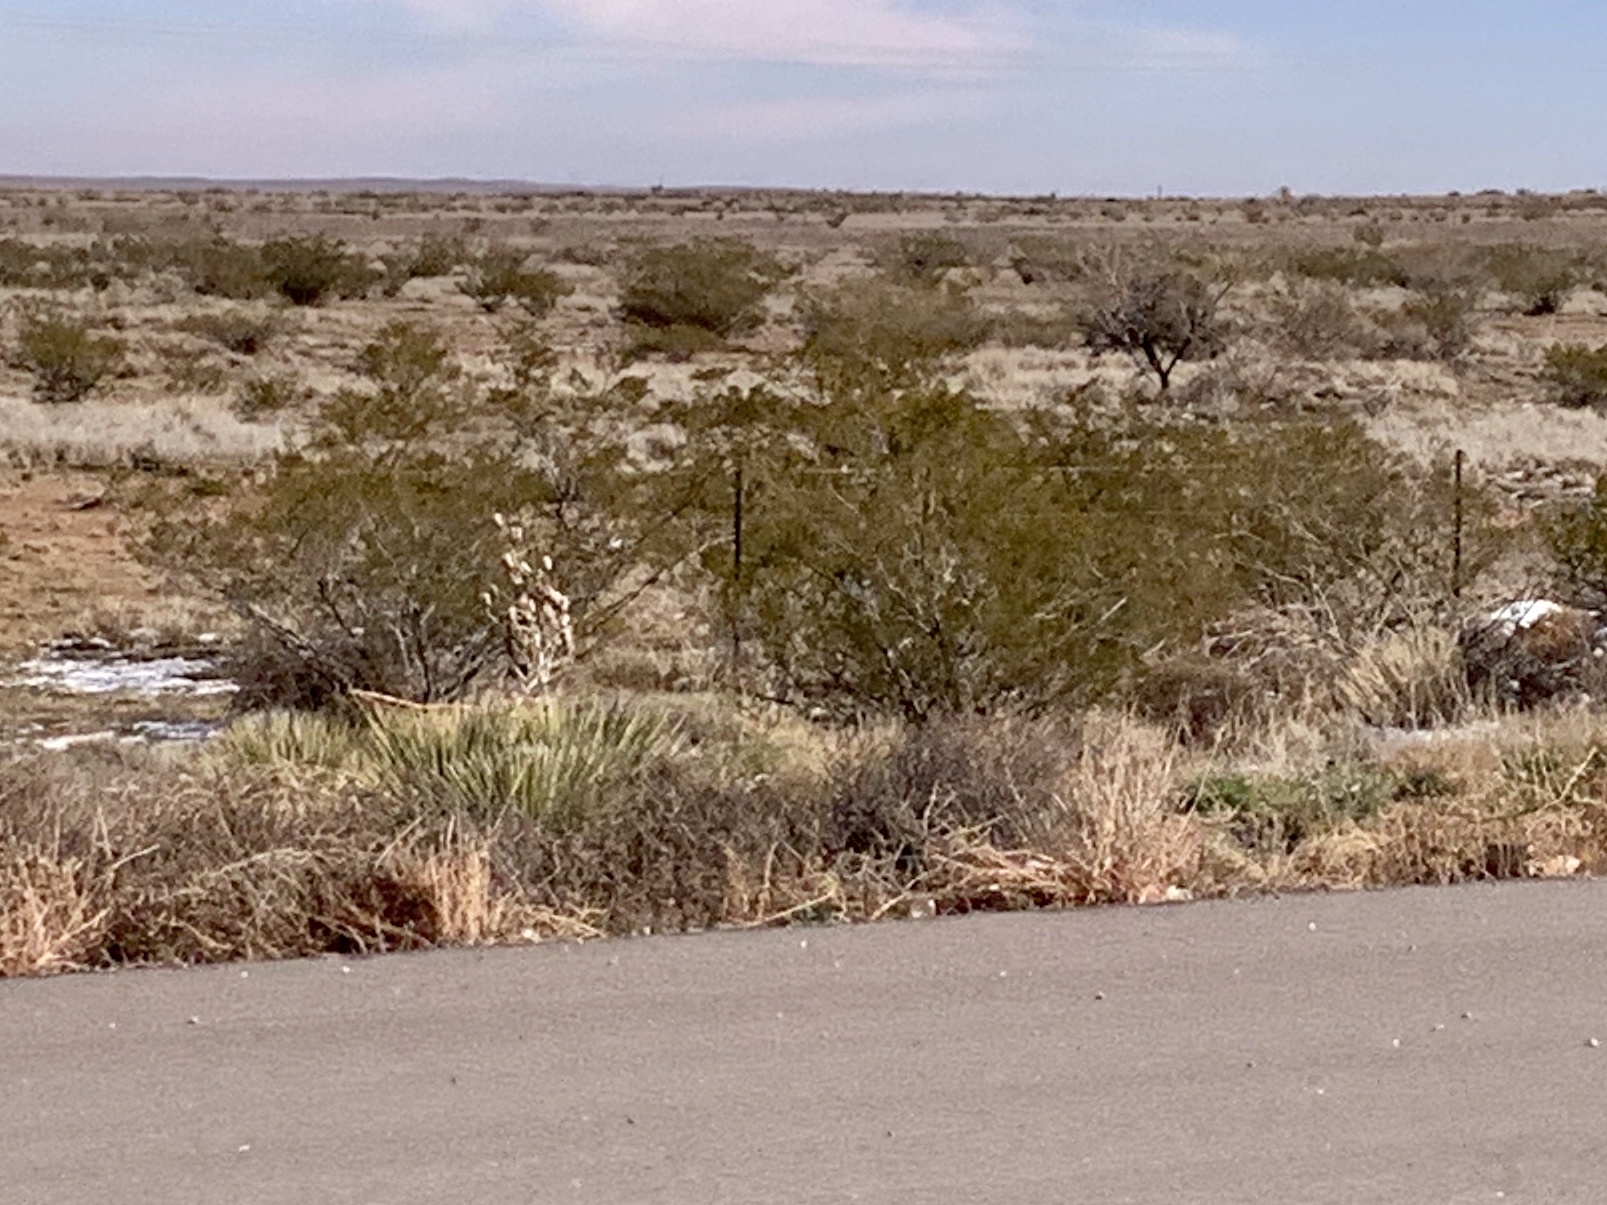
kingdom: Plantae
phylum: Tracheophyta
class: Magnoliopsida
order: Zygophyllales
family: Zygophyllaceae
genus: Larrea
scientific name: Larrea tridentata
